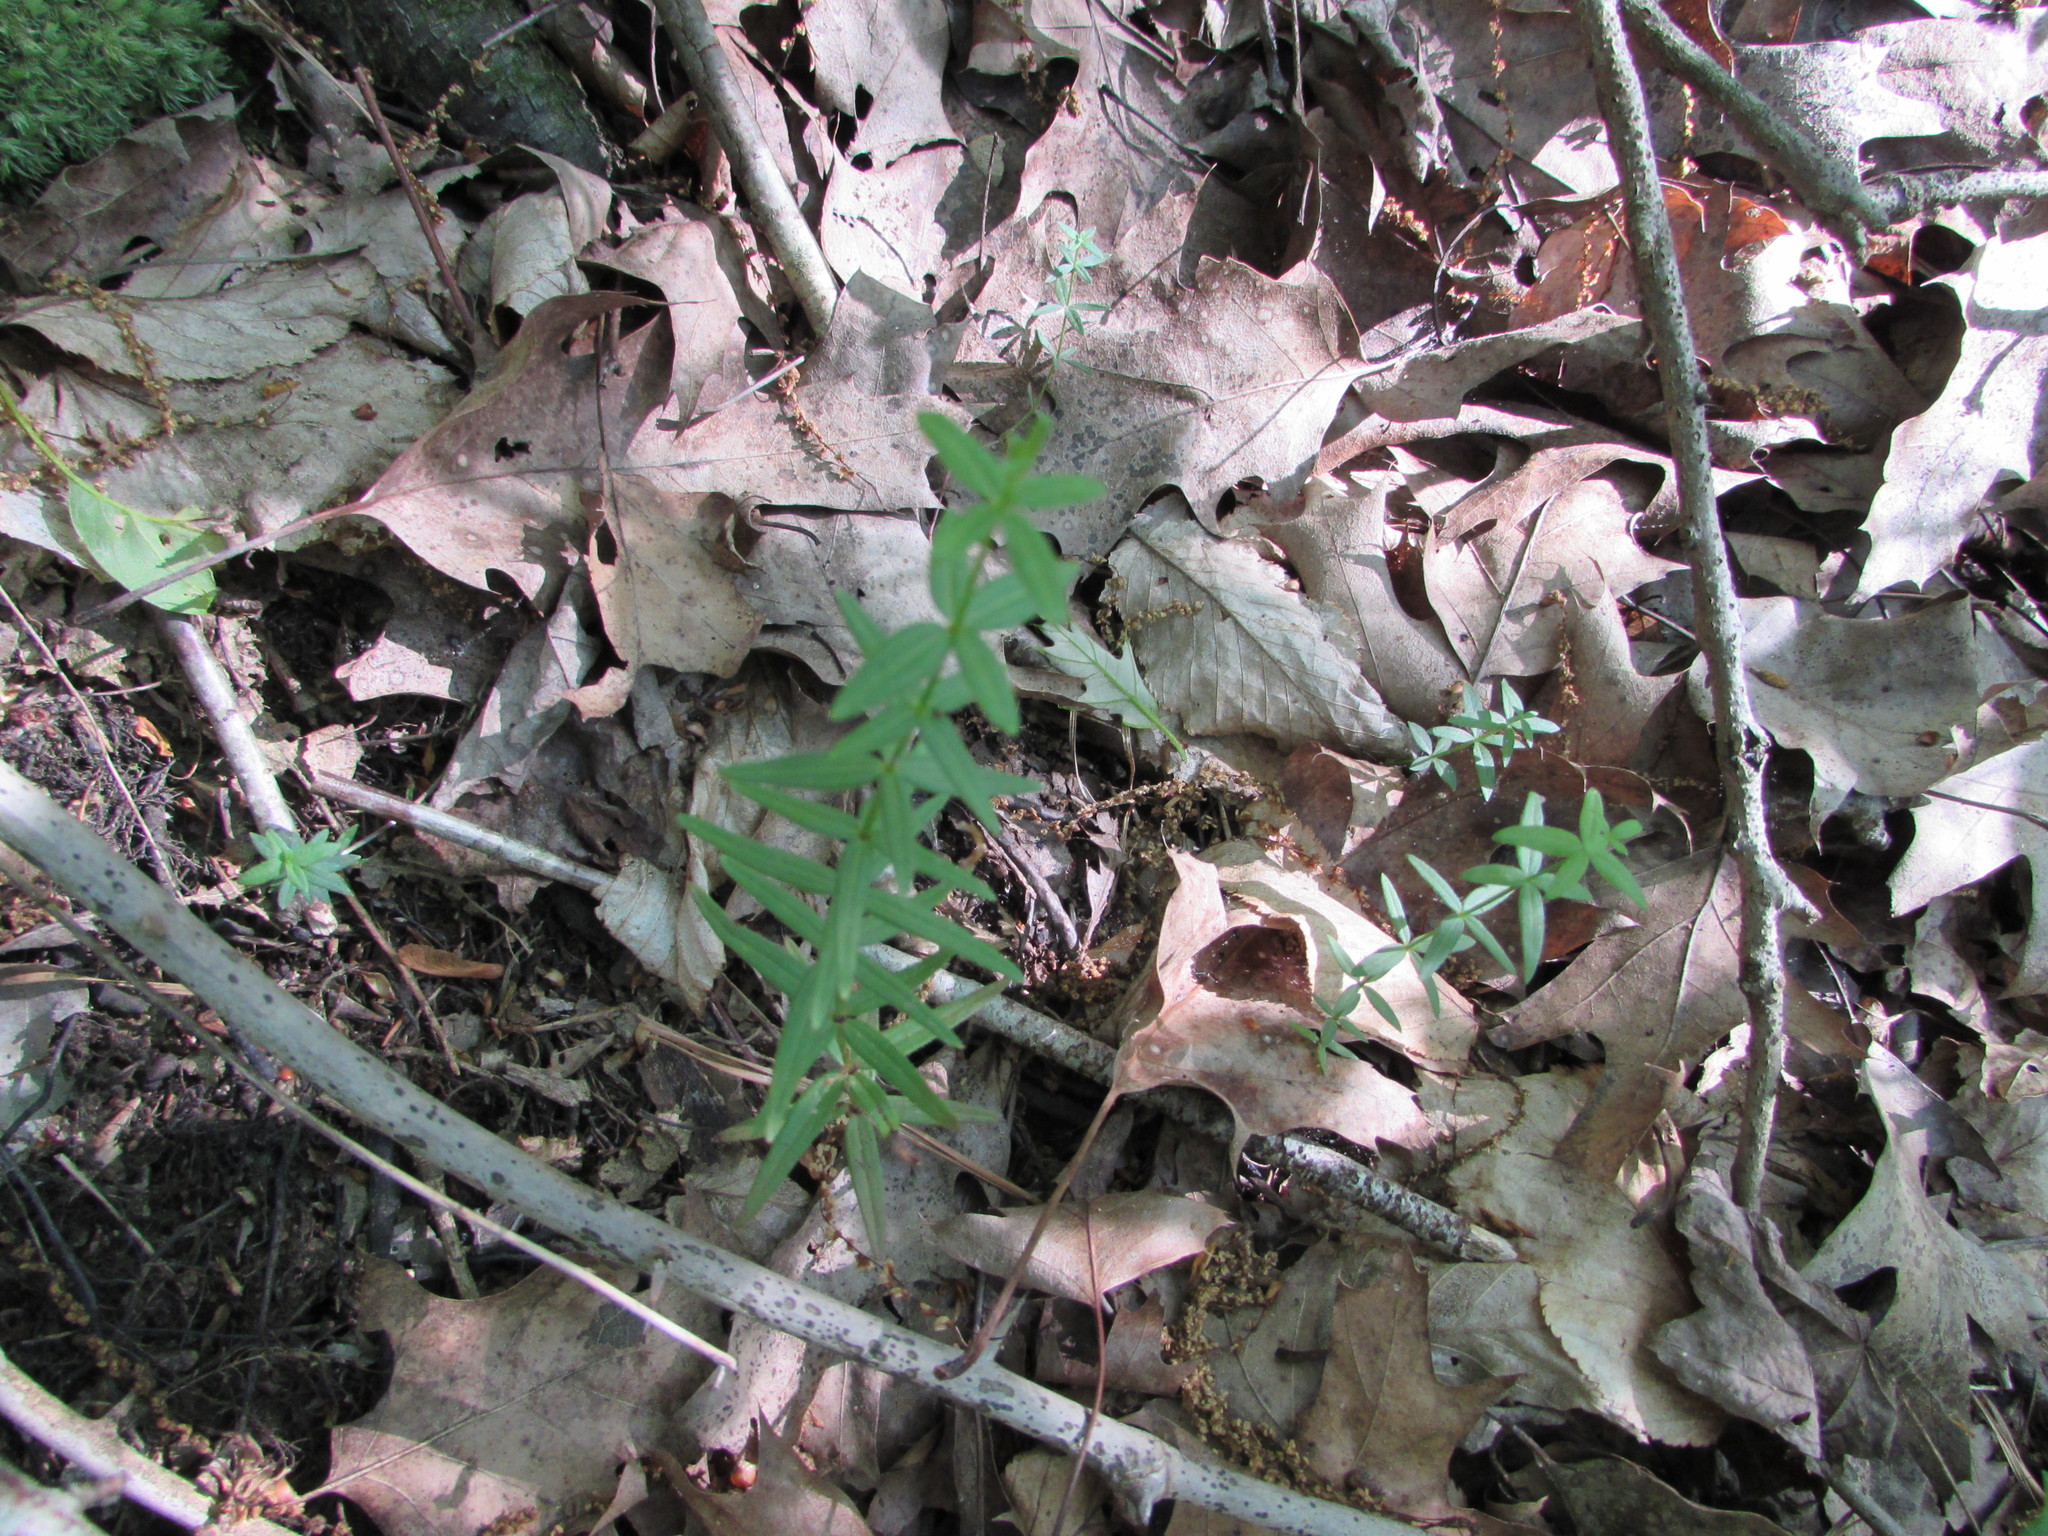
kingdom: Plantae
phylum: Tracheophyta
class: Magnoliopsida
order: Gentianales
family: Rubiaceae
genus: Galium
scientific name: Galium boreale
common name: Northern bedstraw
